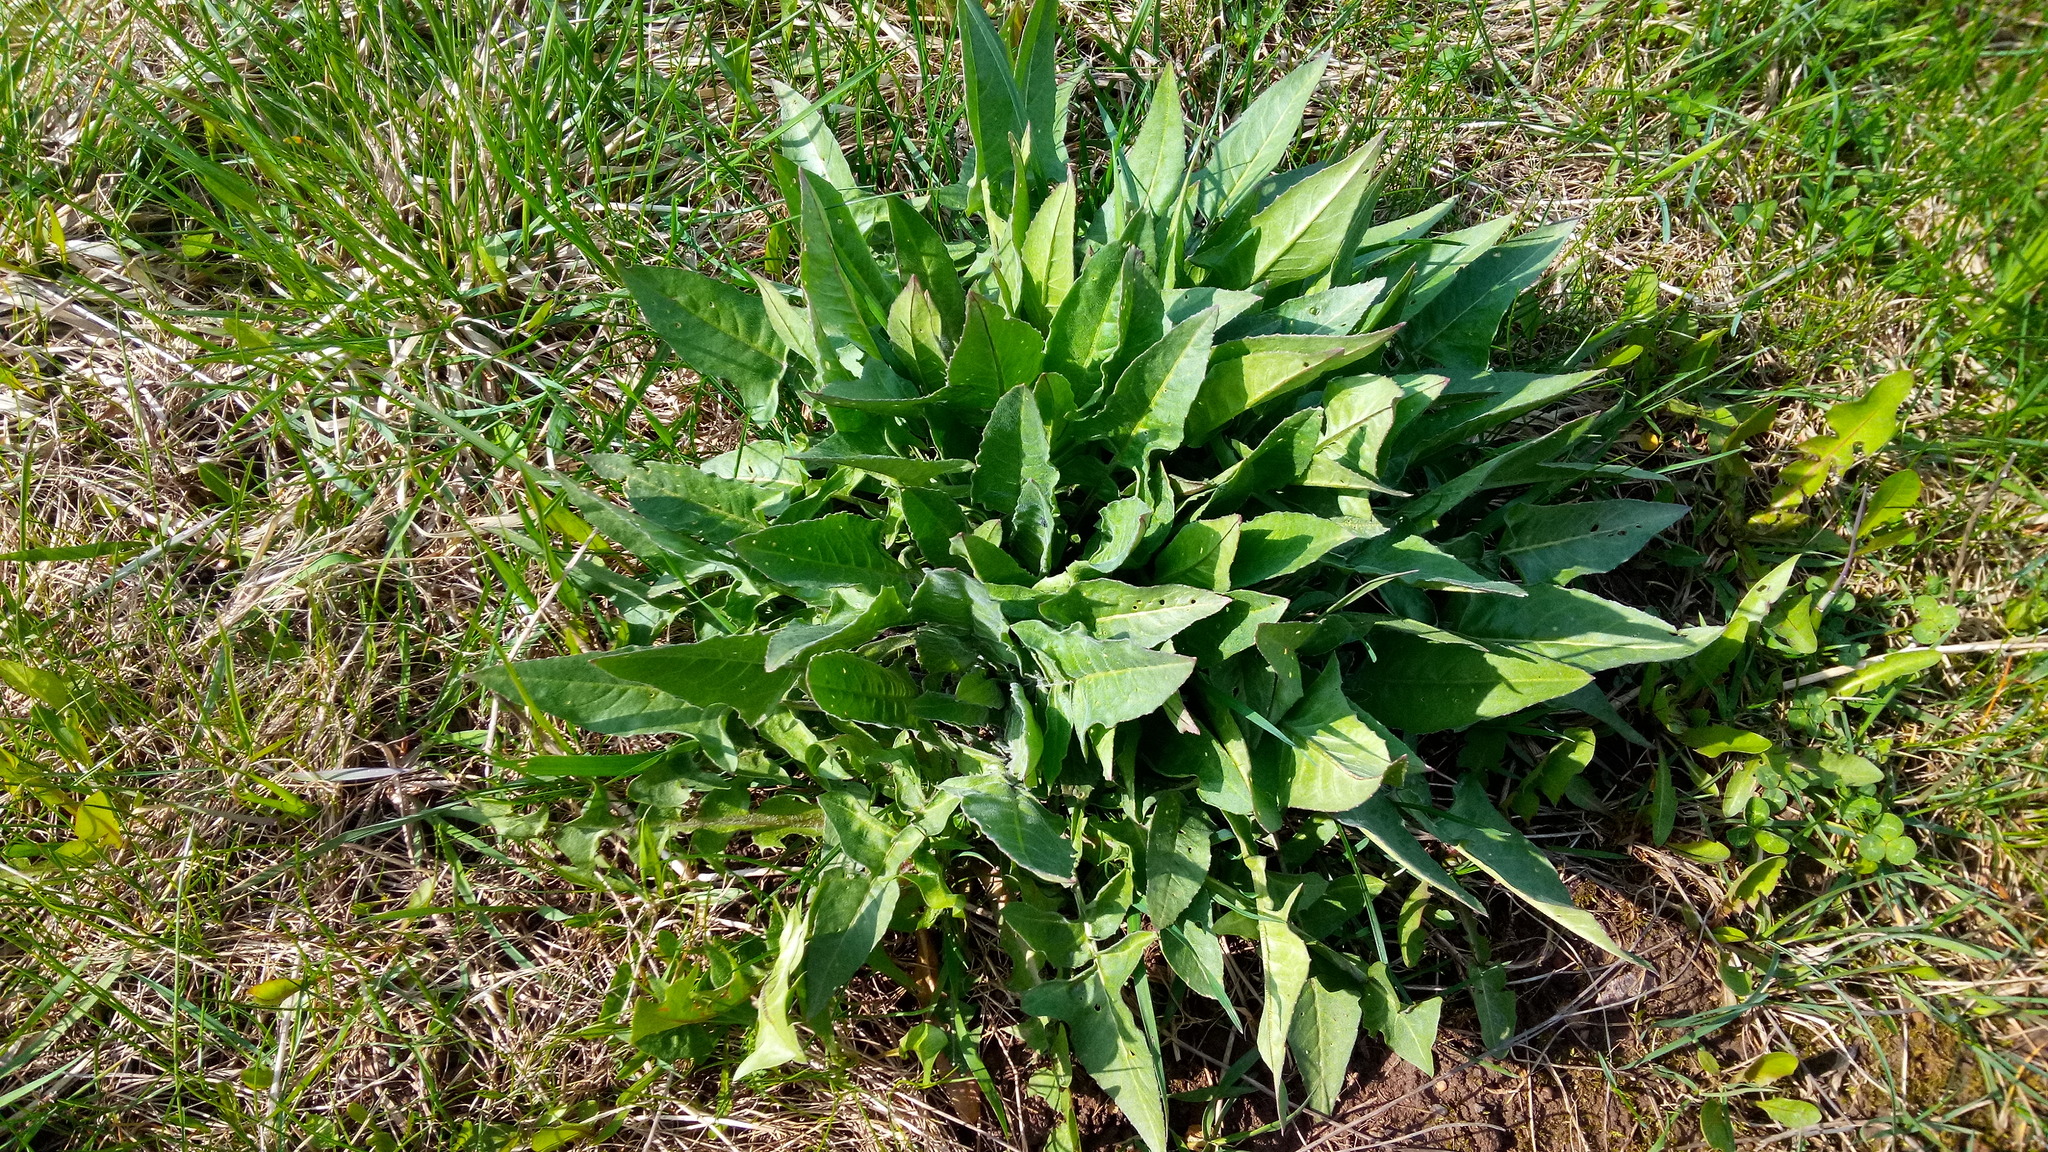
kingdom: Plantae
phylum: Tracheophyta
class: Magnoliopsida
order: Brassicales
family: Brassicaceae
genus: Bunias
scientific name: Bunias orientalis
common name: Warty-cabbage
